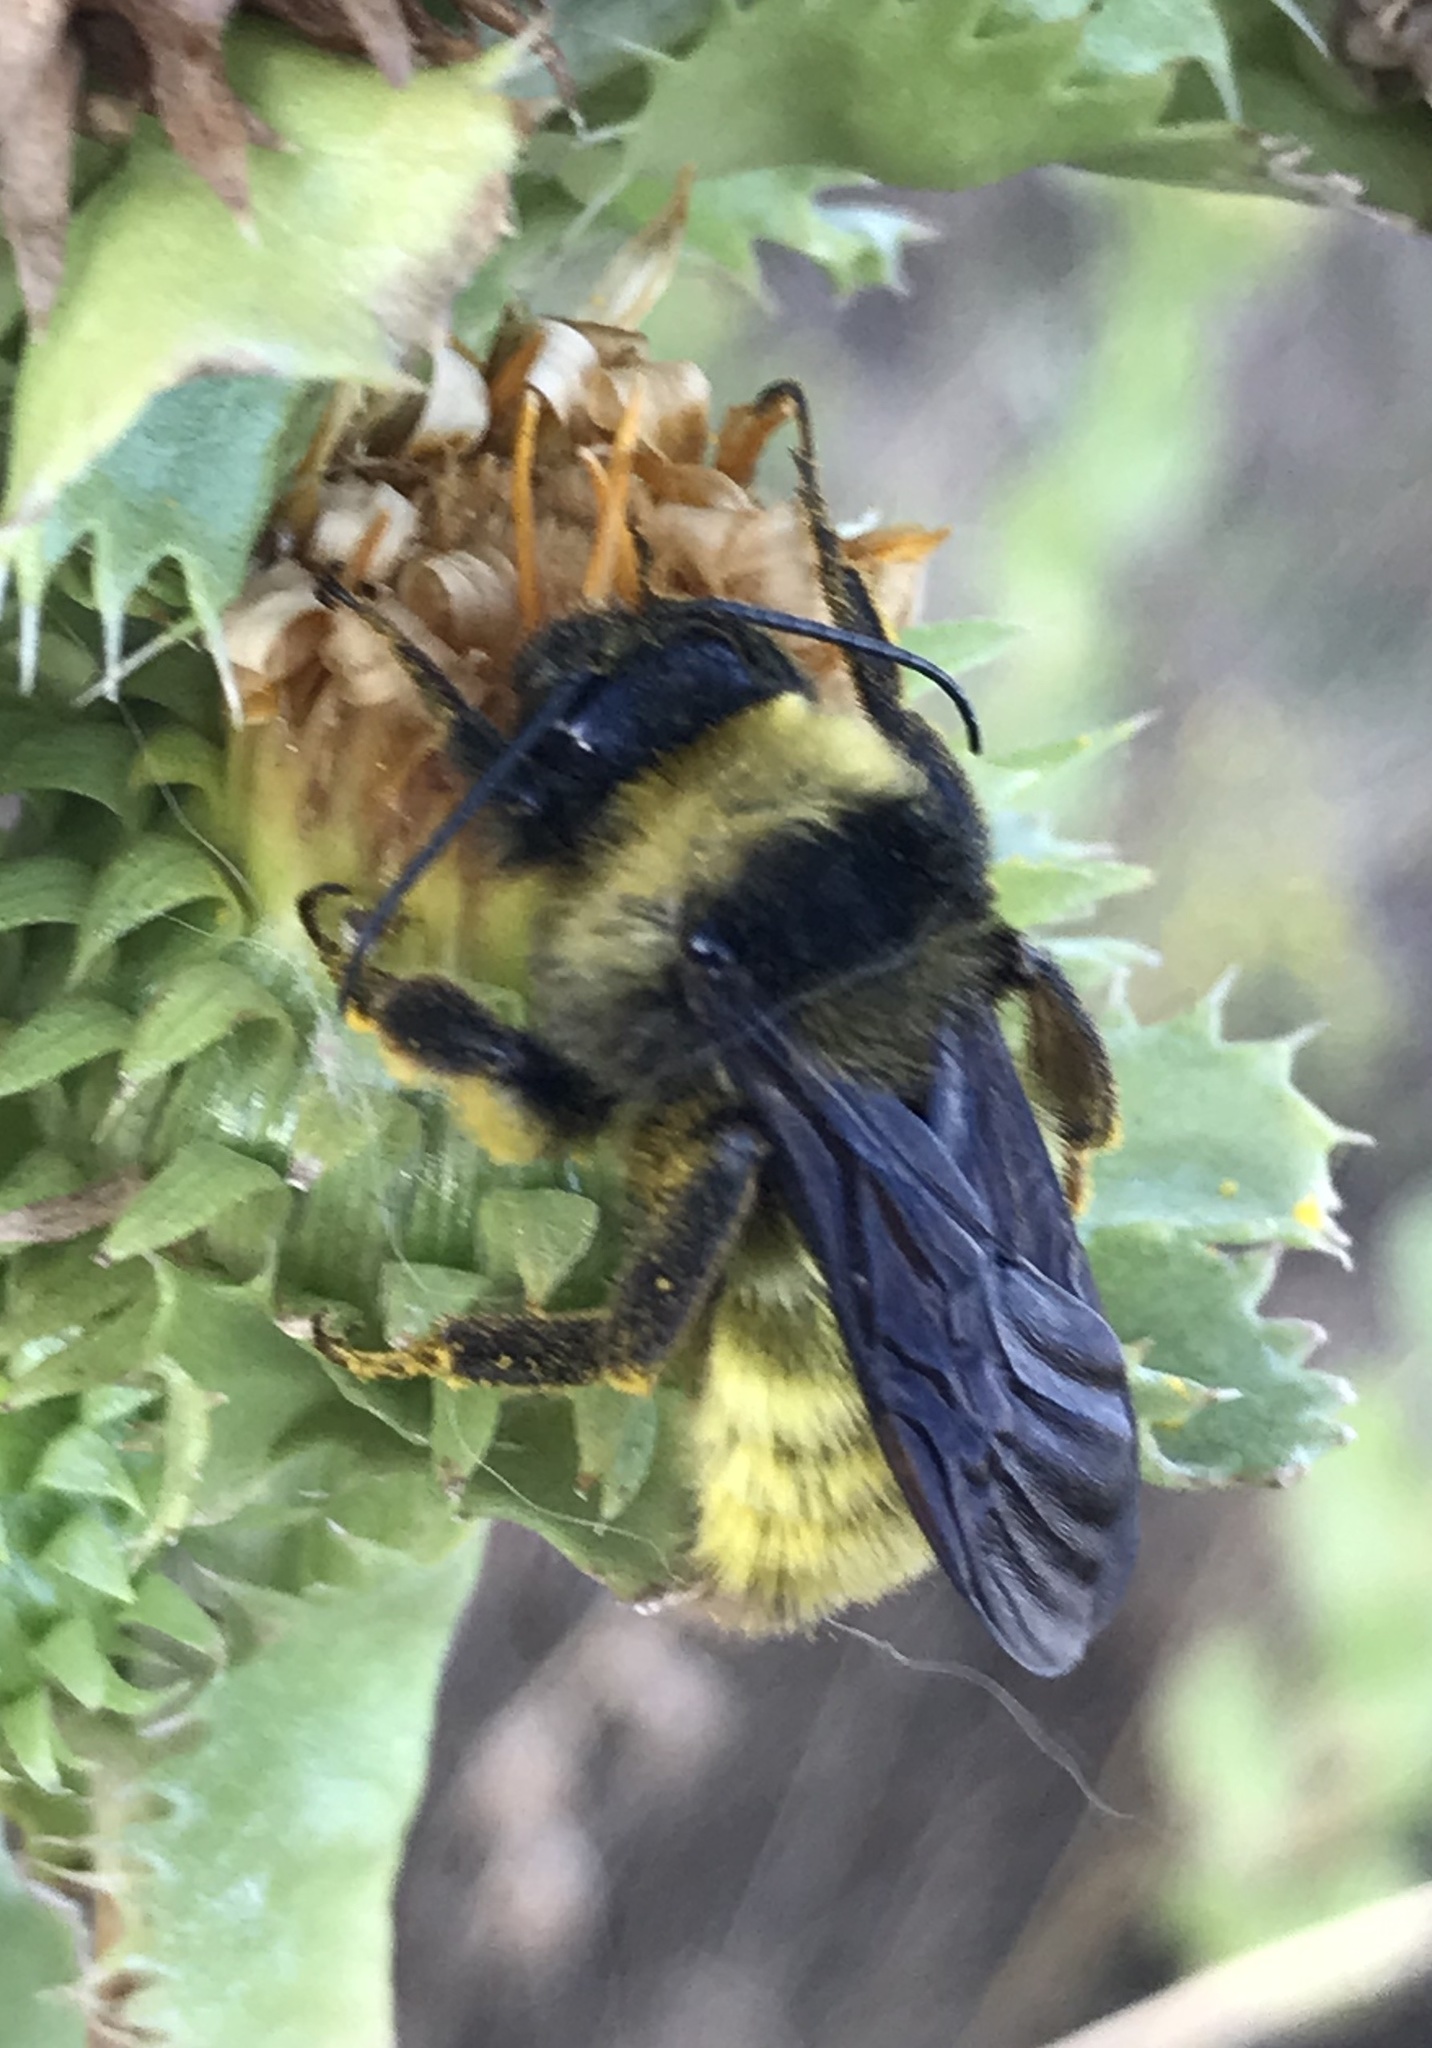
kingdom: Animalia
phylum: Arthropoda
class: Insecta
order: Hymenoptera
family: Apidae
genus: Bombus
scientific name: Bombus pensylvanicus
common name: Bumble bee
